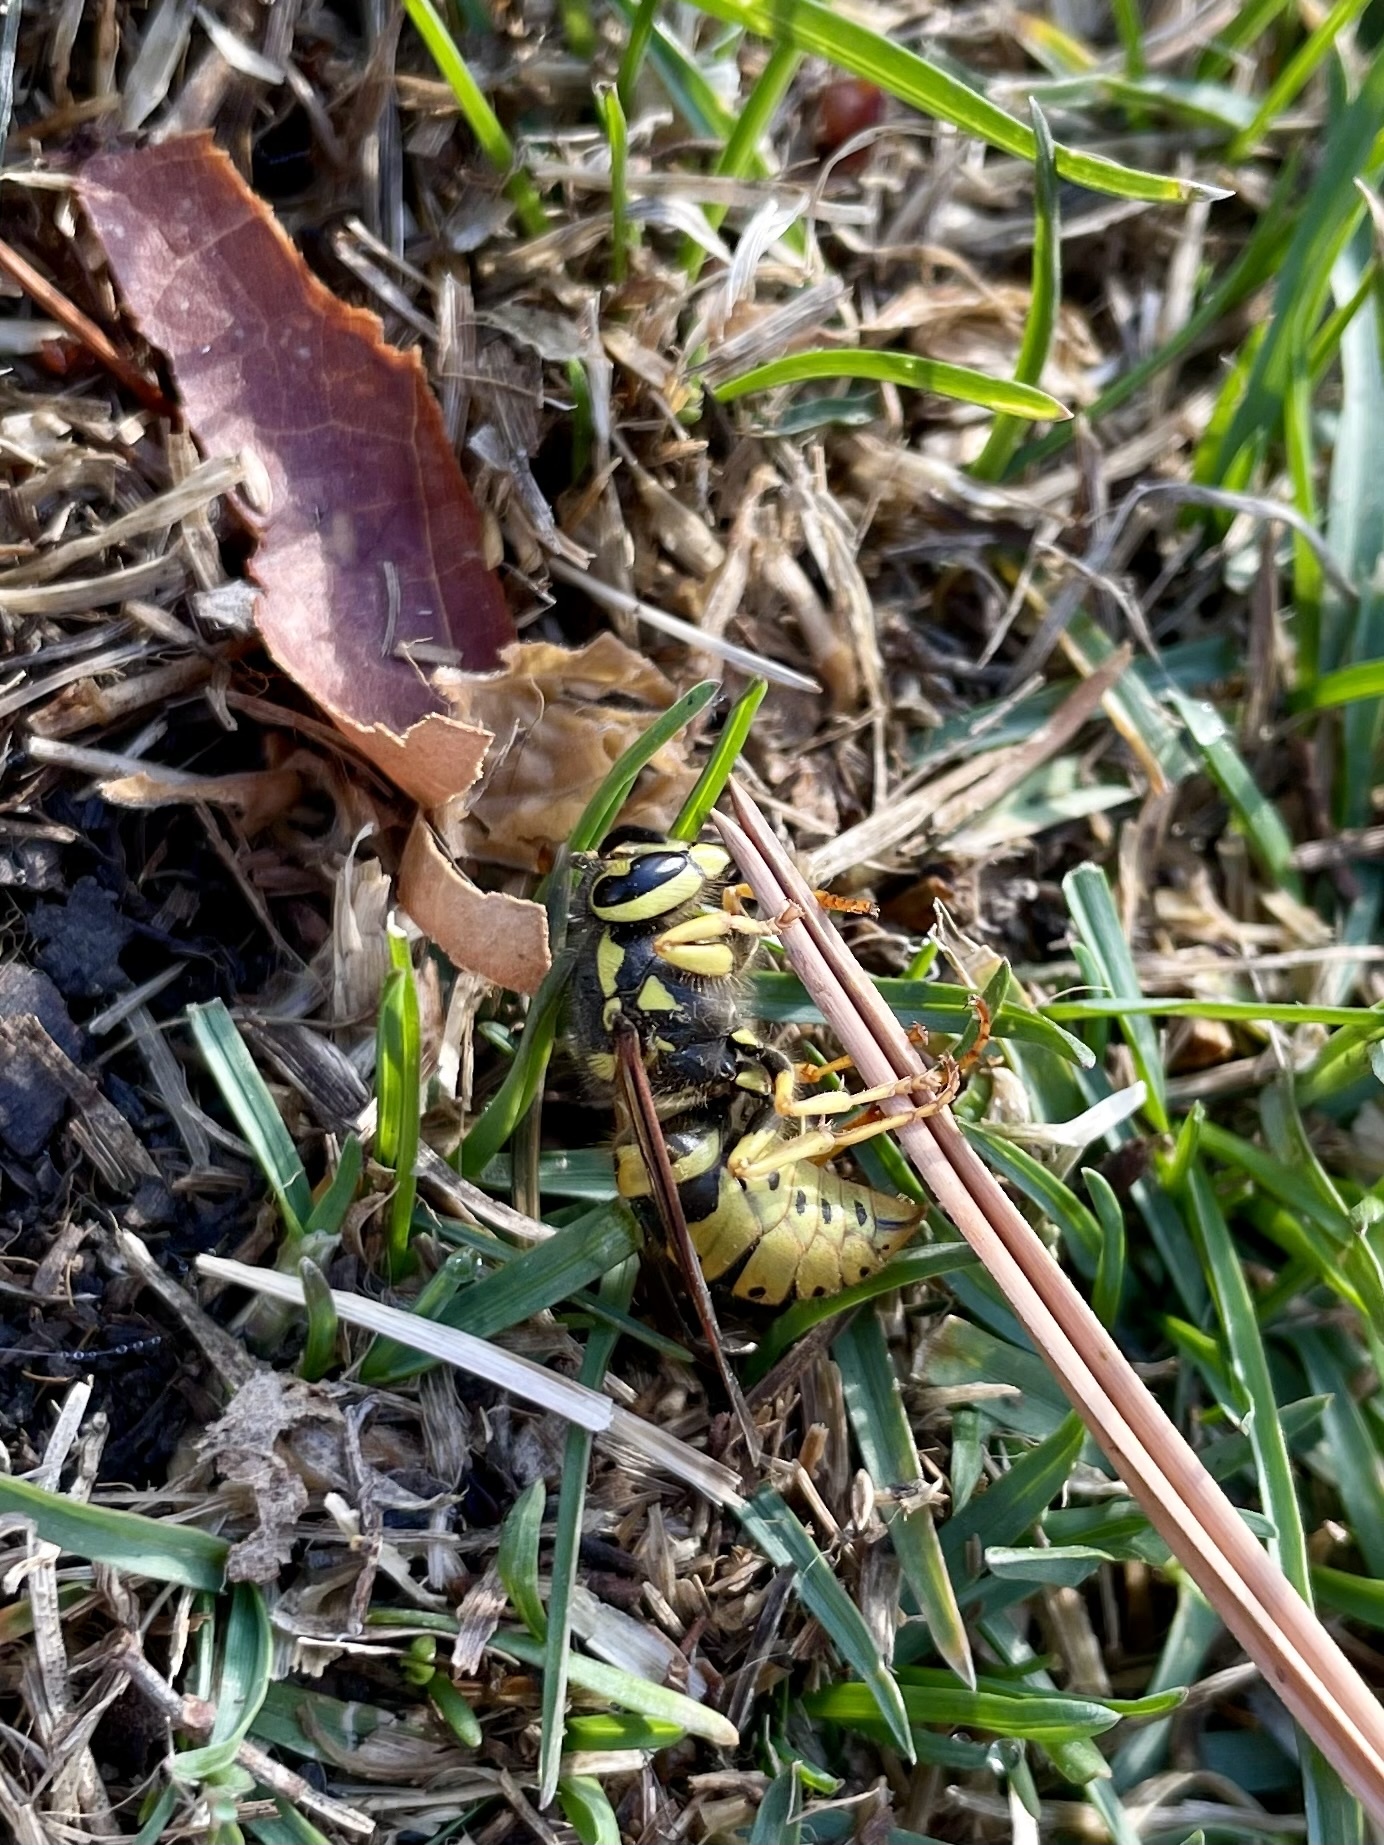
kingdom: Animalia
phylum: Arthropoda
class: Insecta
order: Hymenoptera
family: Vespidae
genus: Vespula
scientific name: Vespula pensylvanica
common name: Western yellowjacket
